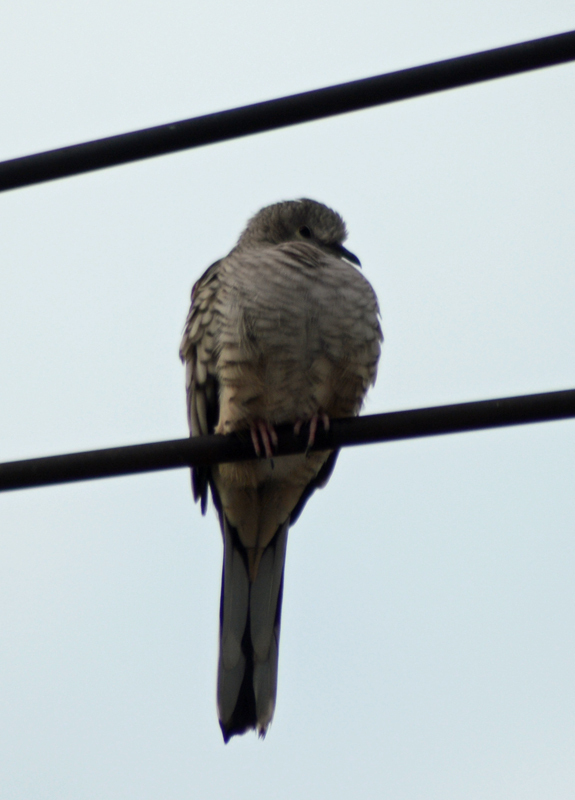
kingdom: Animalia
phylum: Chordata
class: Aves
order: Columbiformes
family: Columbidae
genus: Columbina
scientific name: Columbina inca
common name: Inca dove
